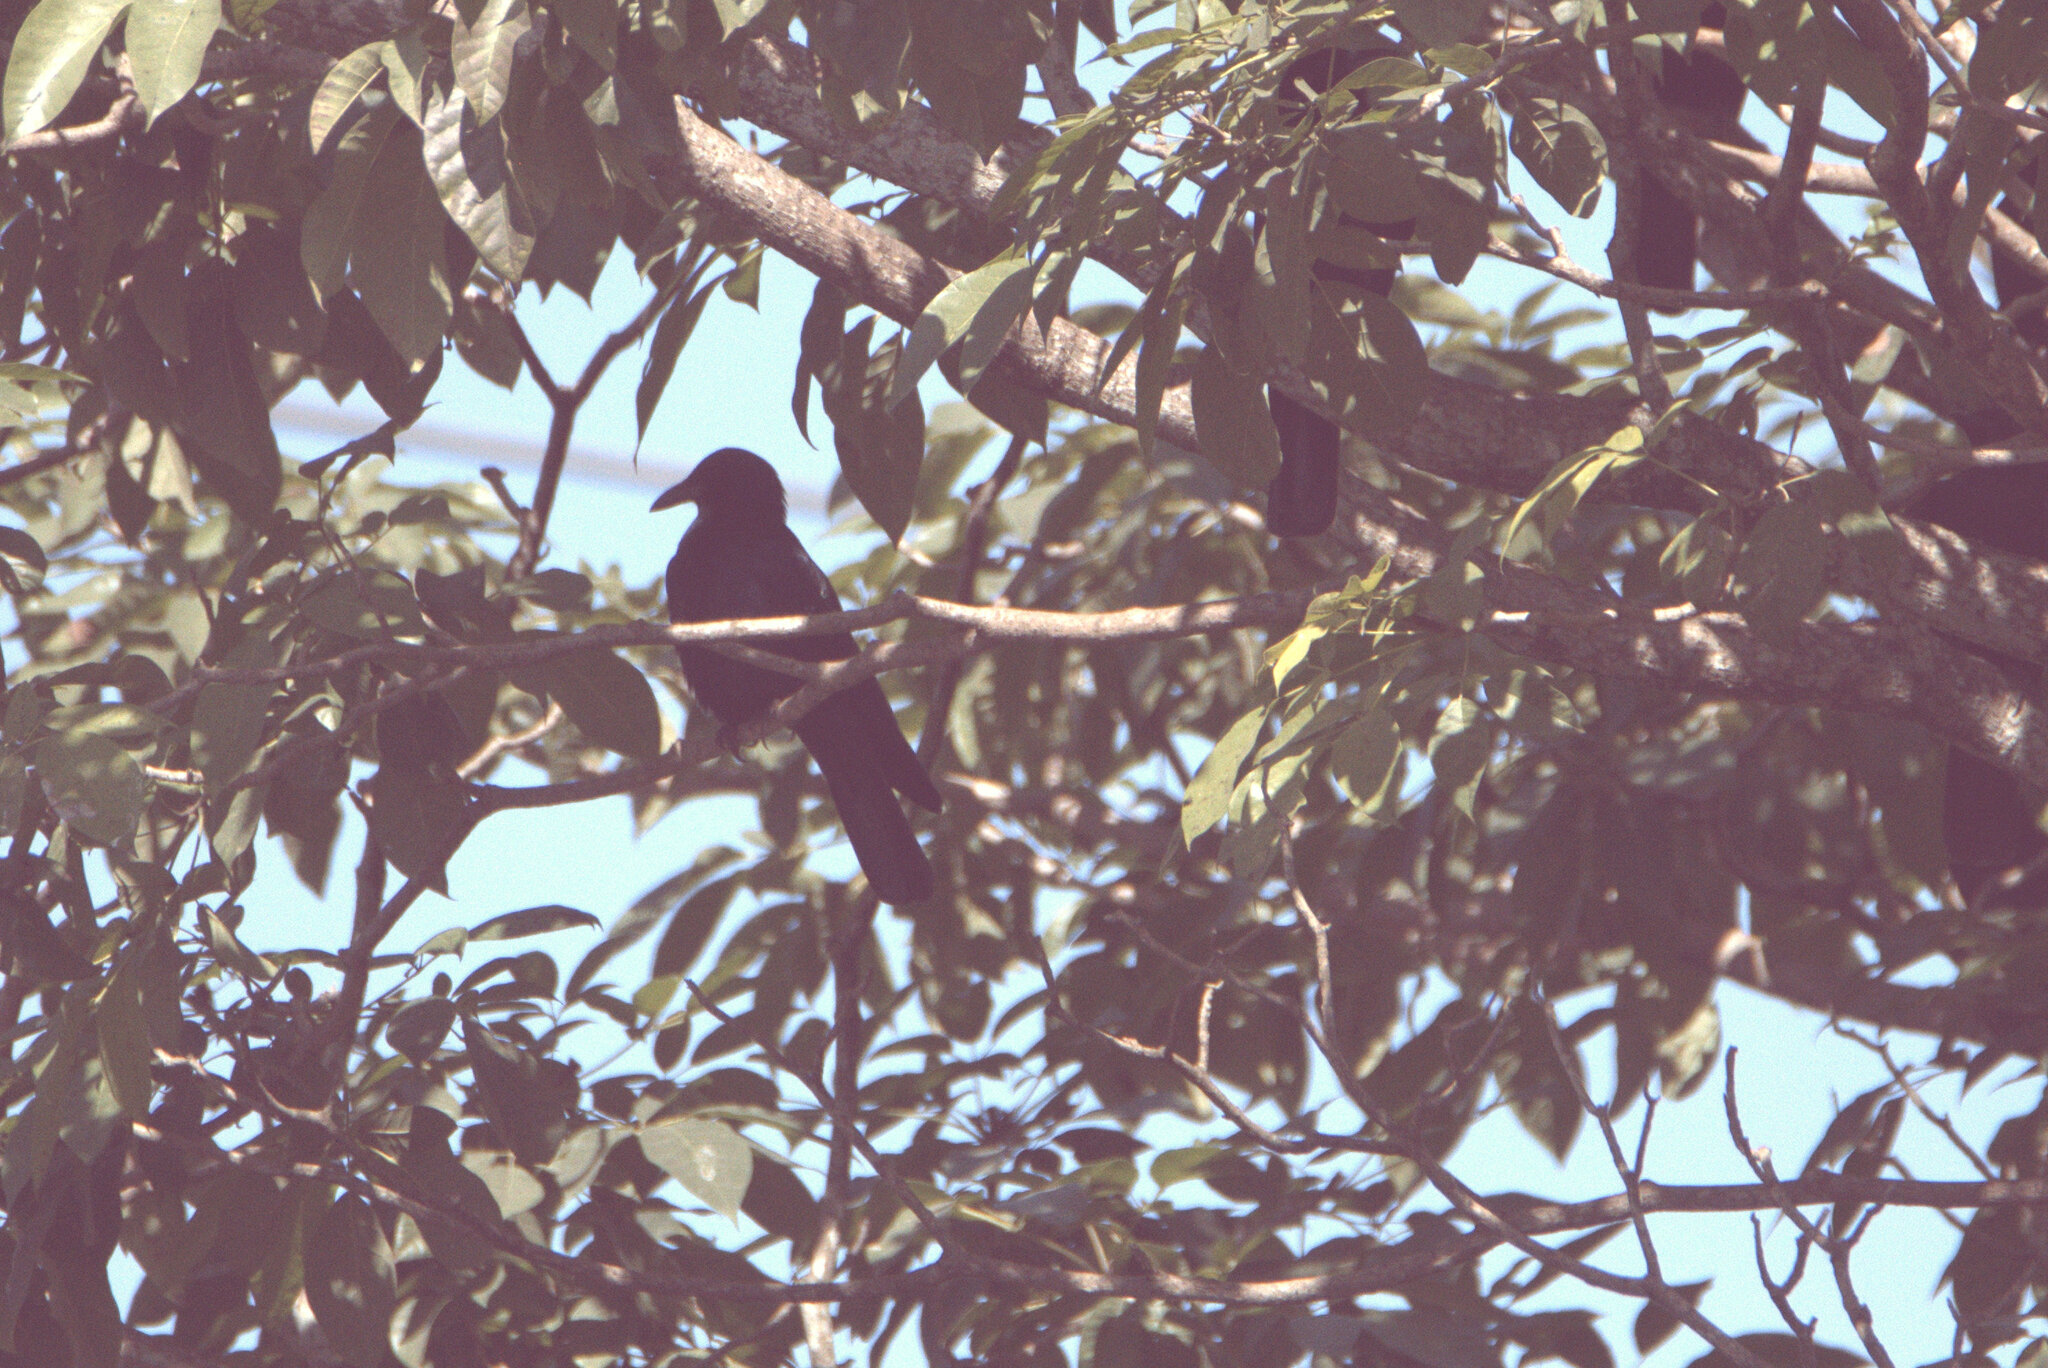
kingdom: Animalia
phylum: Chordata
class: Aves
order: Passeriformes
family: Corvidae
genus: Corvus
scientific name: Corvus imparatus
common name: Tamaulipas crow
